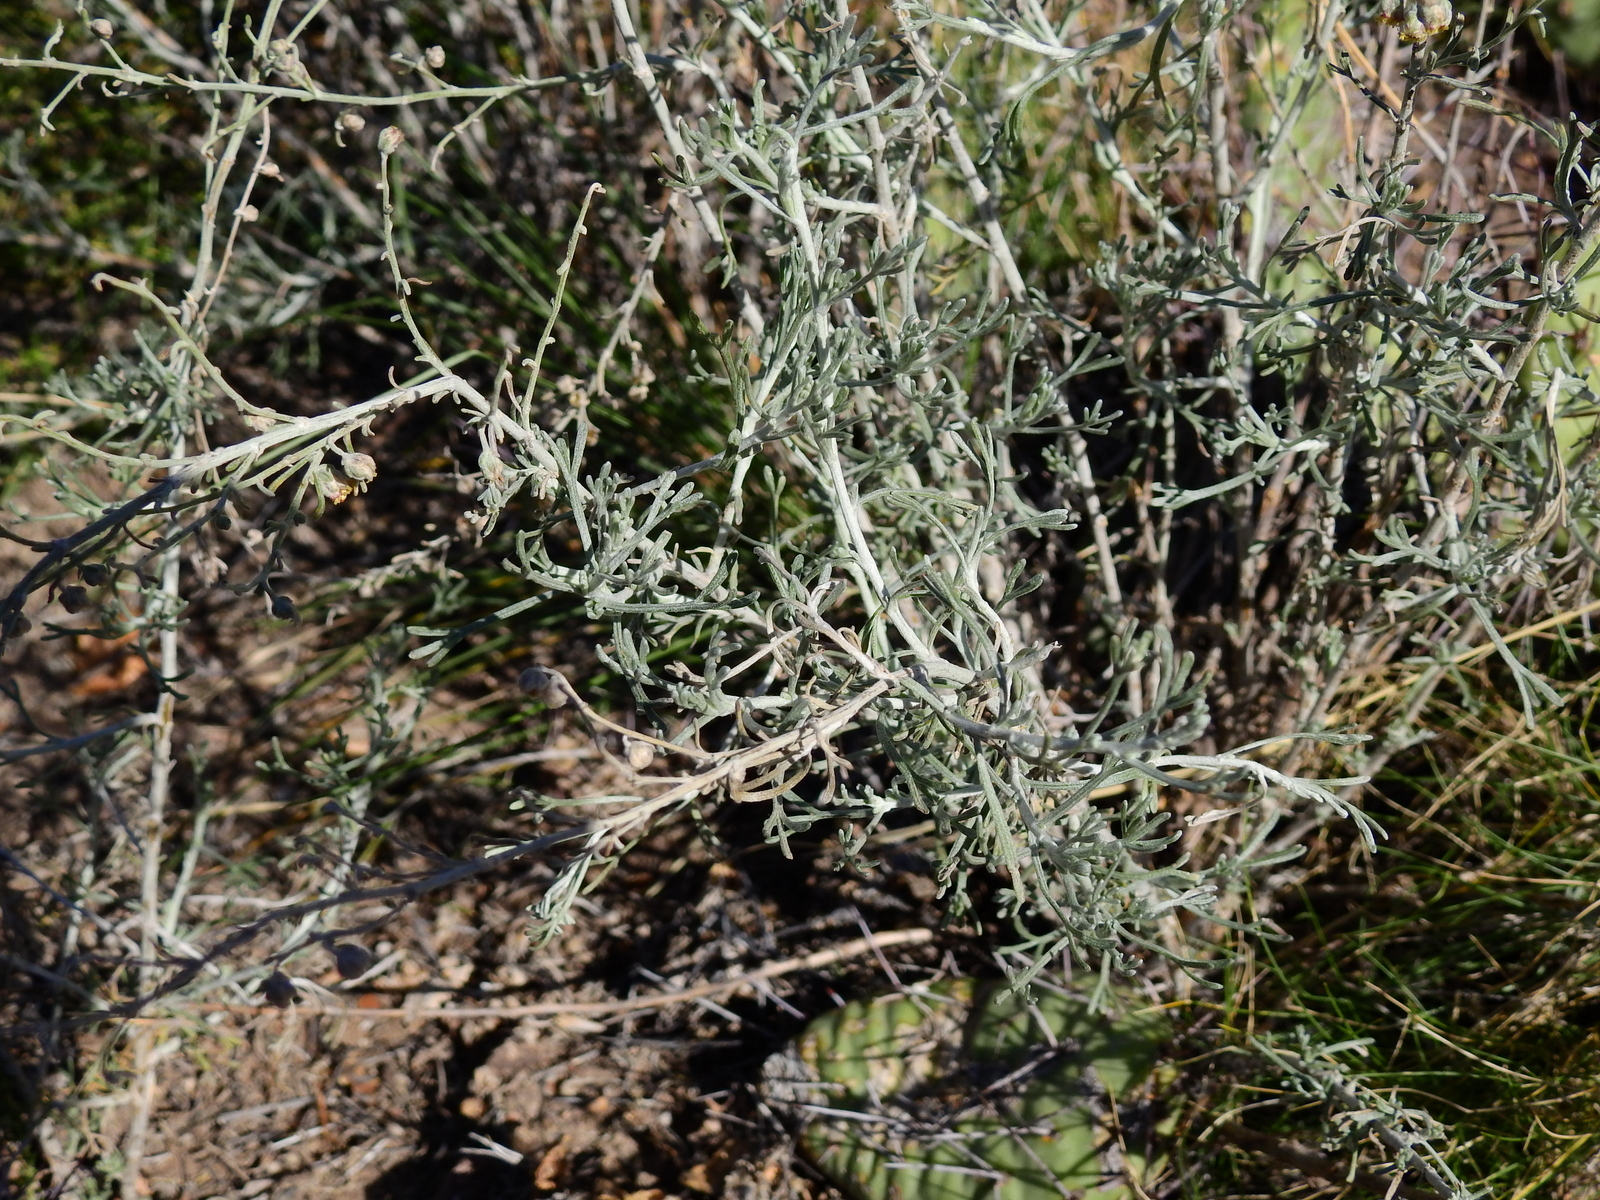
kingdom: Plantae
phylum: Tracheophyta
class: Magnoliopsida
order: Asterales
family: Asteraceae
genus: Artemisia
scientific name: Artemisia mendozana
